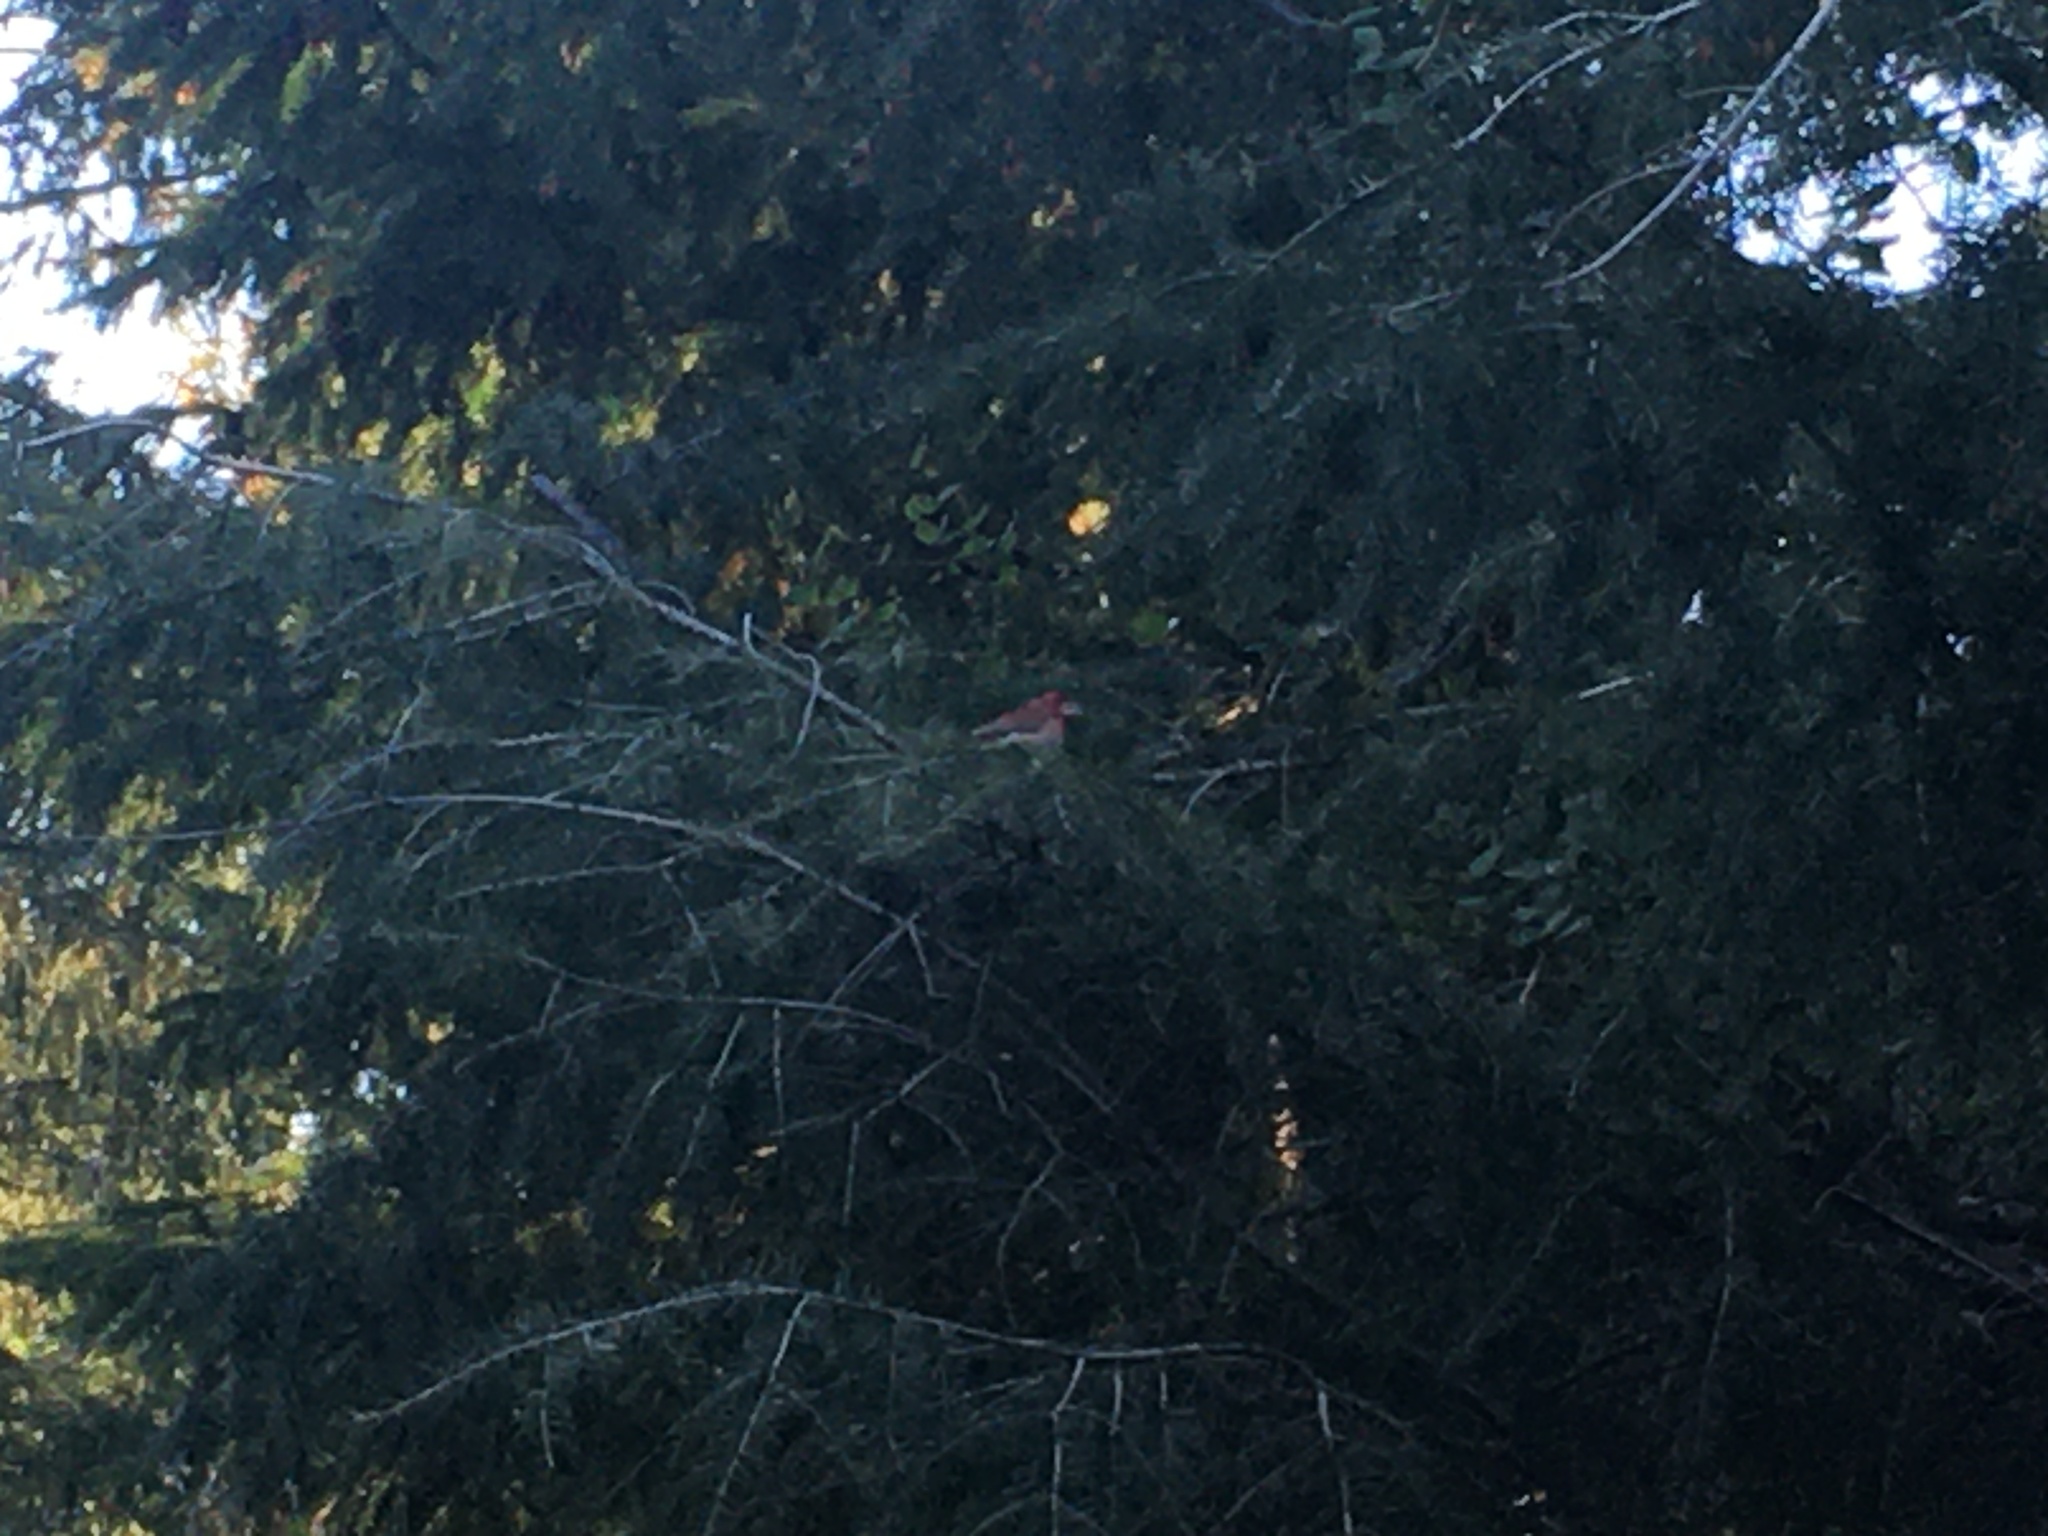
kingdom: Animalia
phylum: Chordata
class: Aves
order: Passeriformes
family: Fringillidae
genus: Haemorhous
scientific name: Haemorhous purpureus
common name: Purple finch
